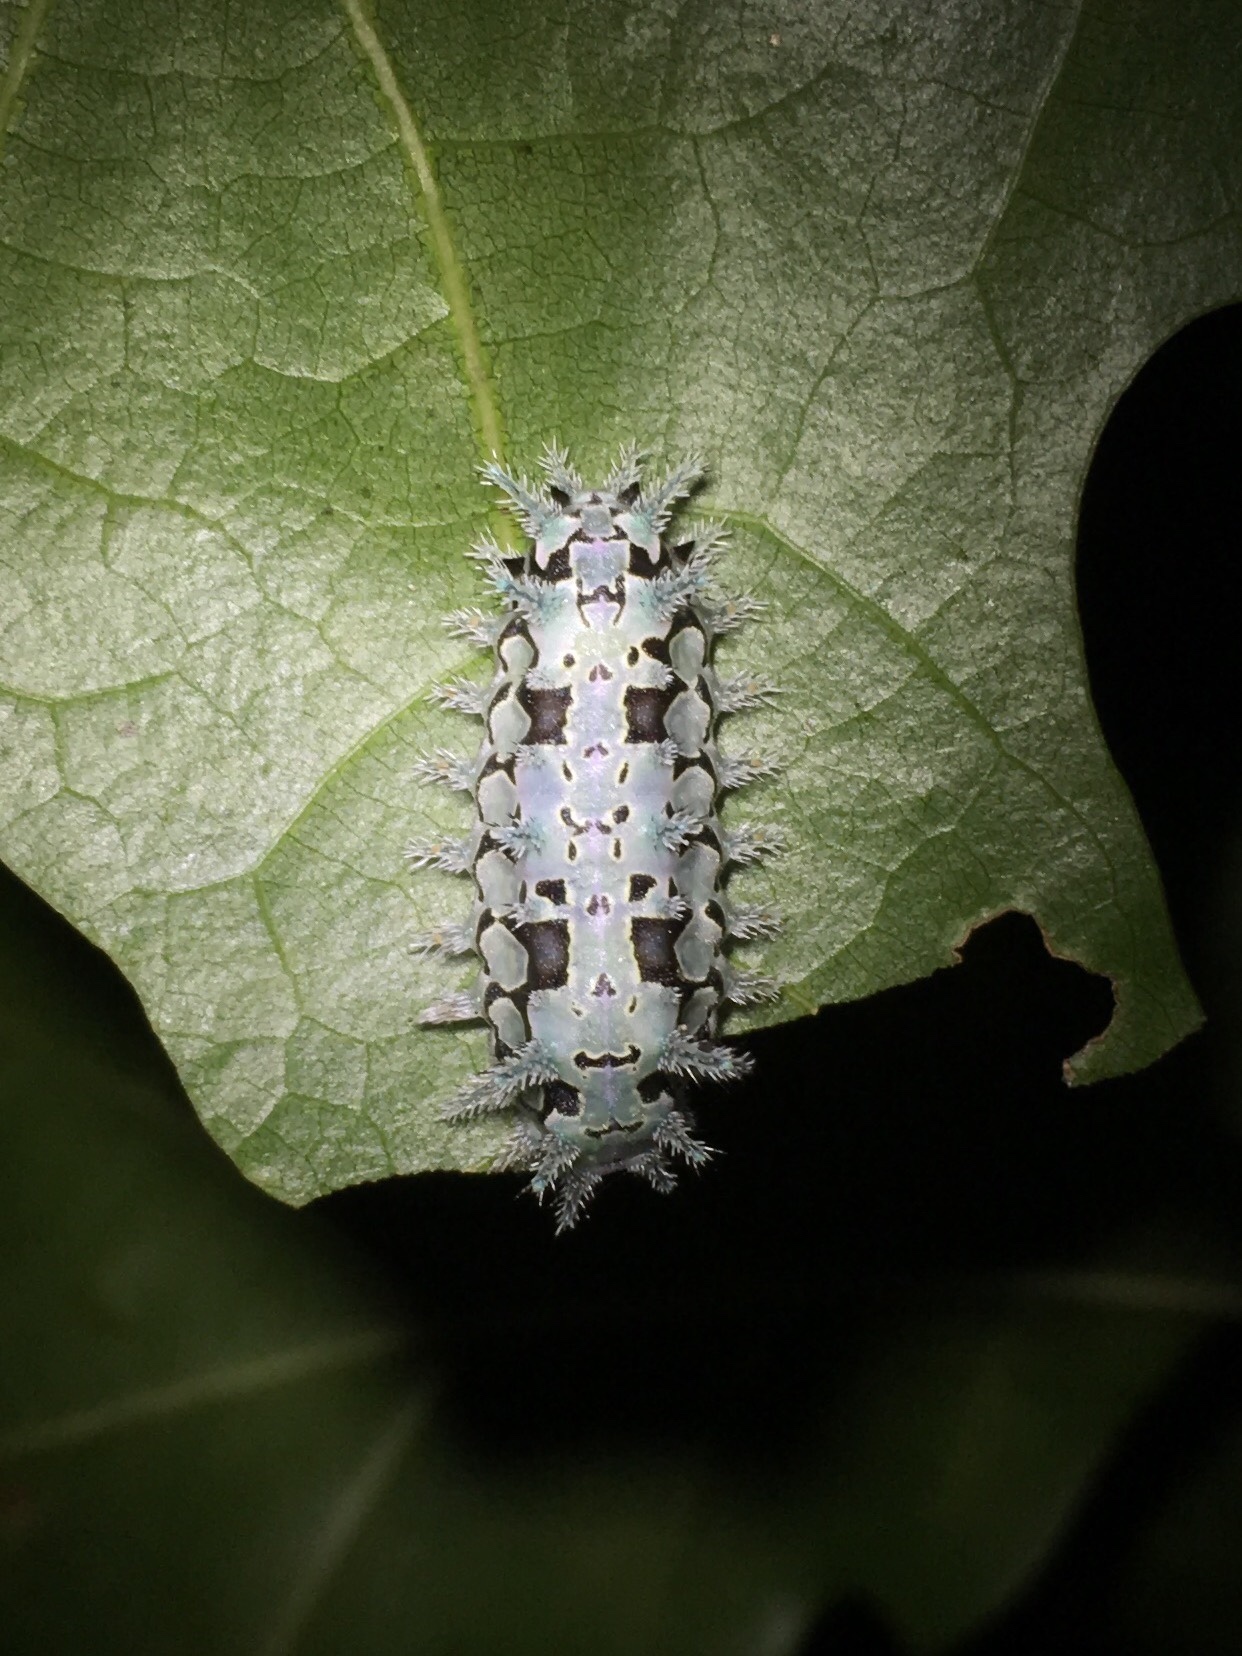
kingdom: Animalia
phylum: Arthropoda
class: Insecta
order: Lepidoptera
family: Limacodidae
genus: Euclea
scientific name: Euclea delphinii
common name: Spiny oak-slug moth
